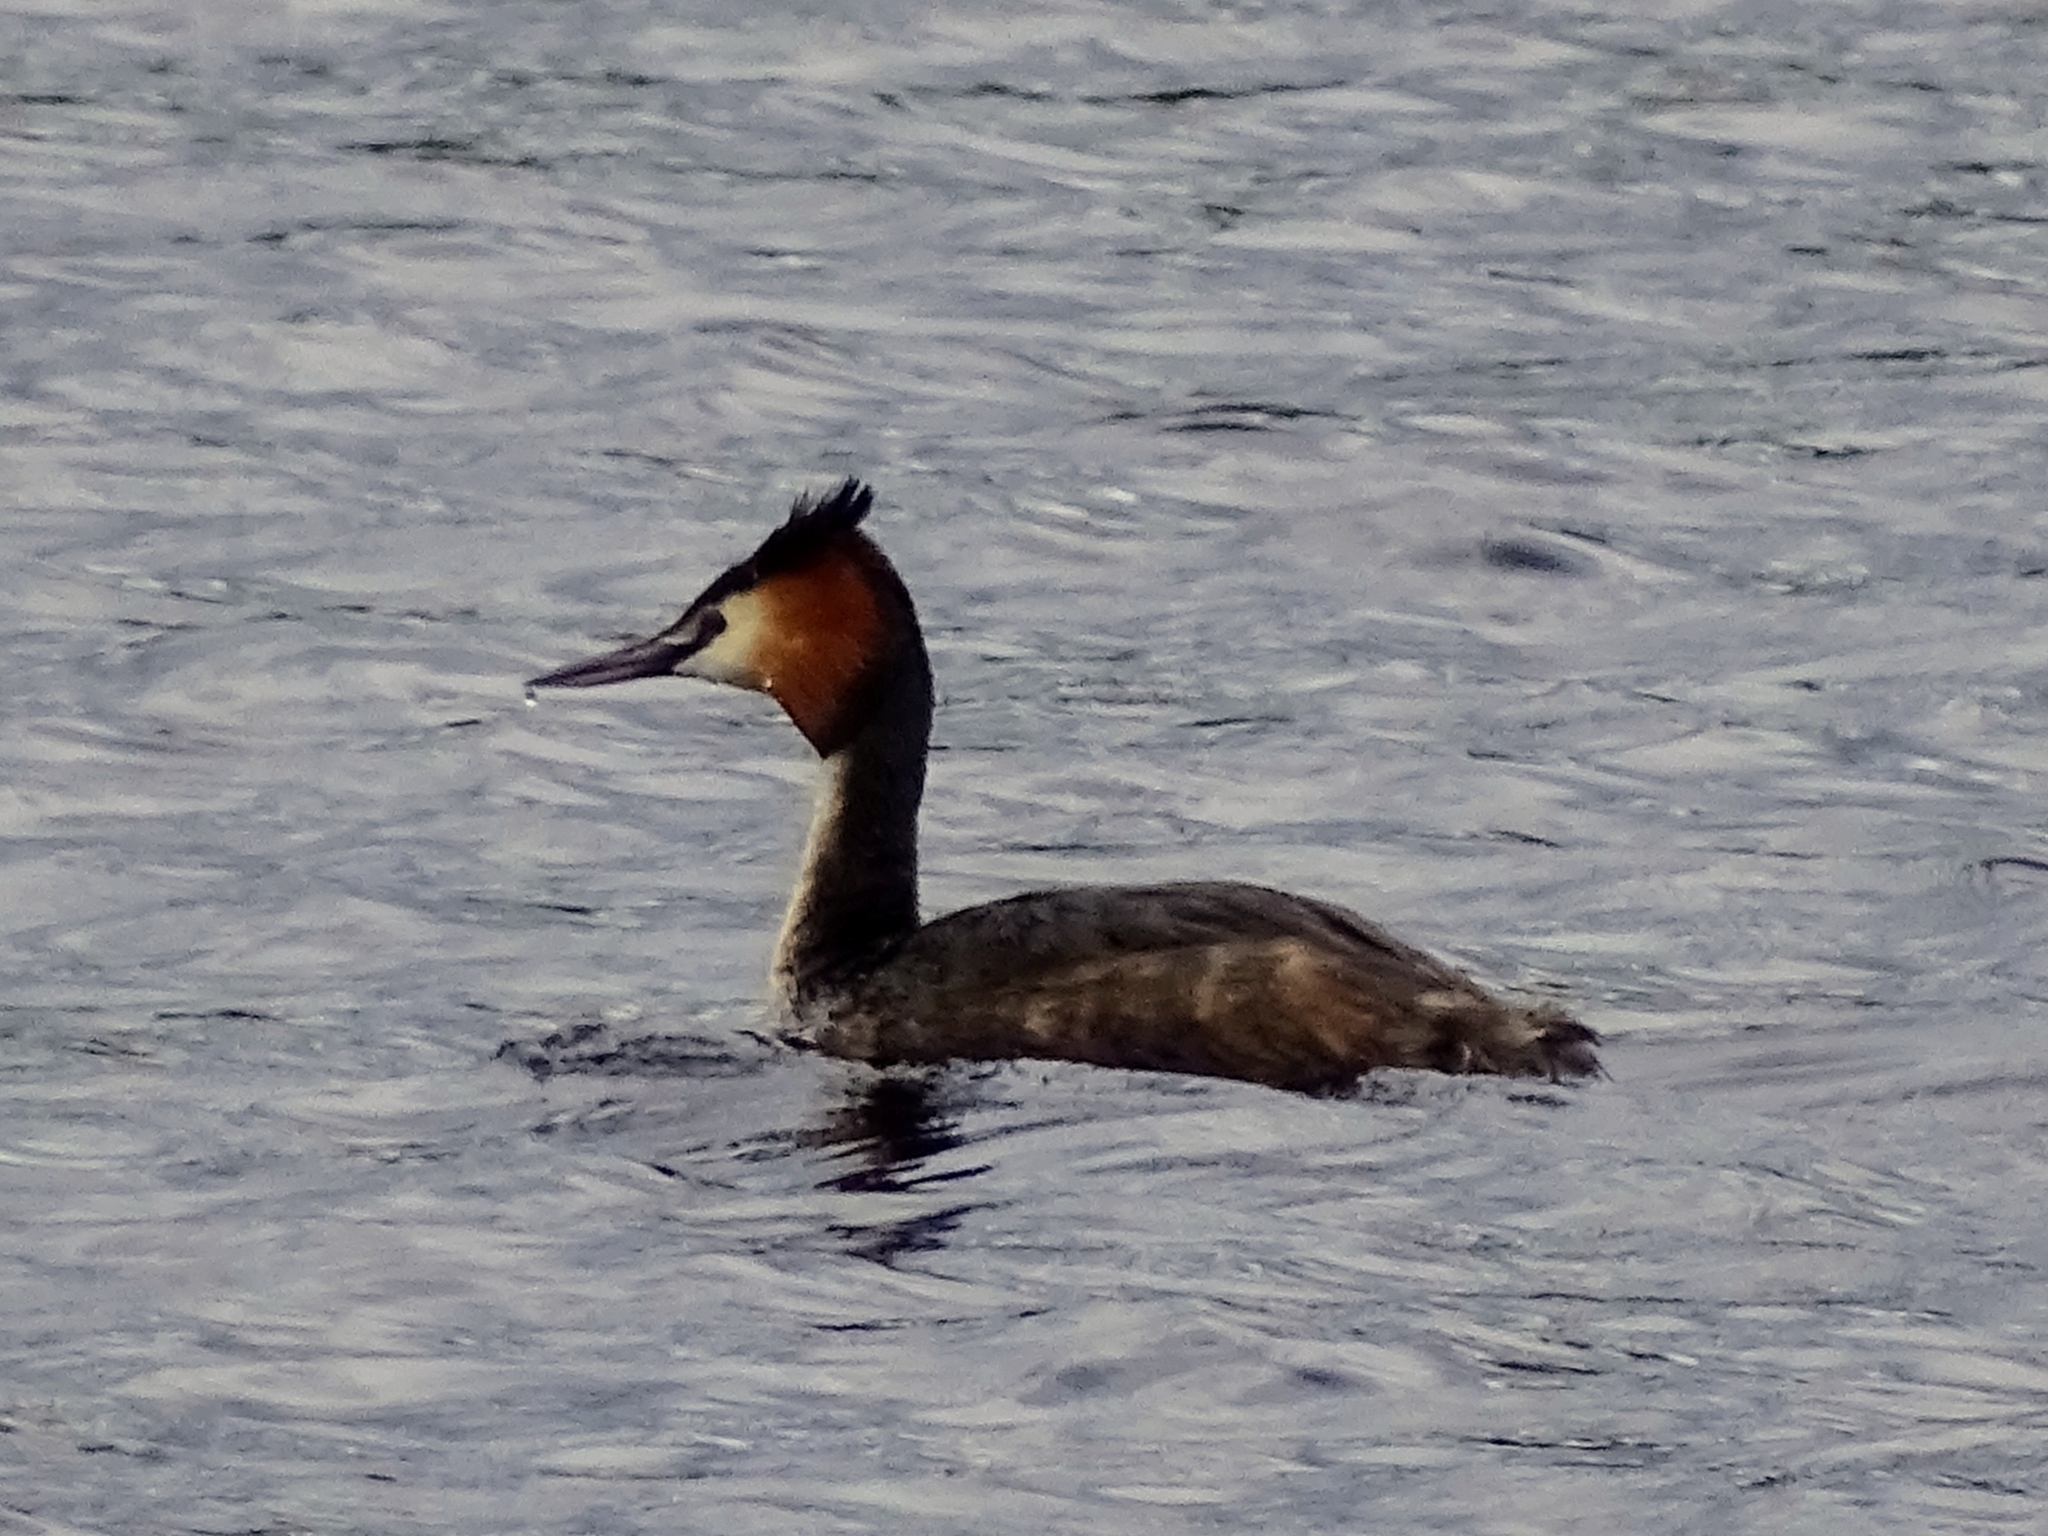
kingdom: Animalia
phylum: Chordata
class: Aves
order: Podicipediformes
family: Podicipedidae
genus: Podiceps
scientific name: Podiceps cristatus
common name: Great crested grebe
